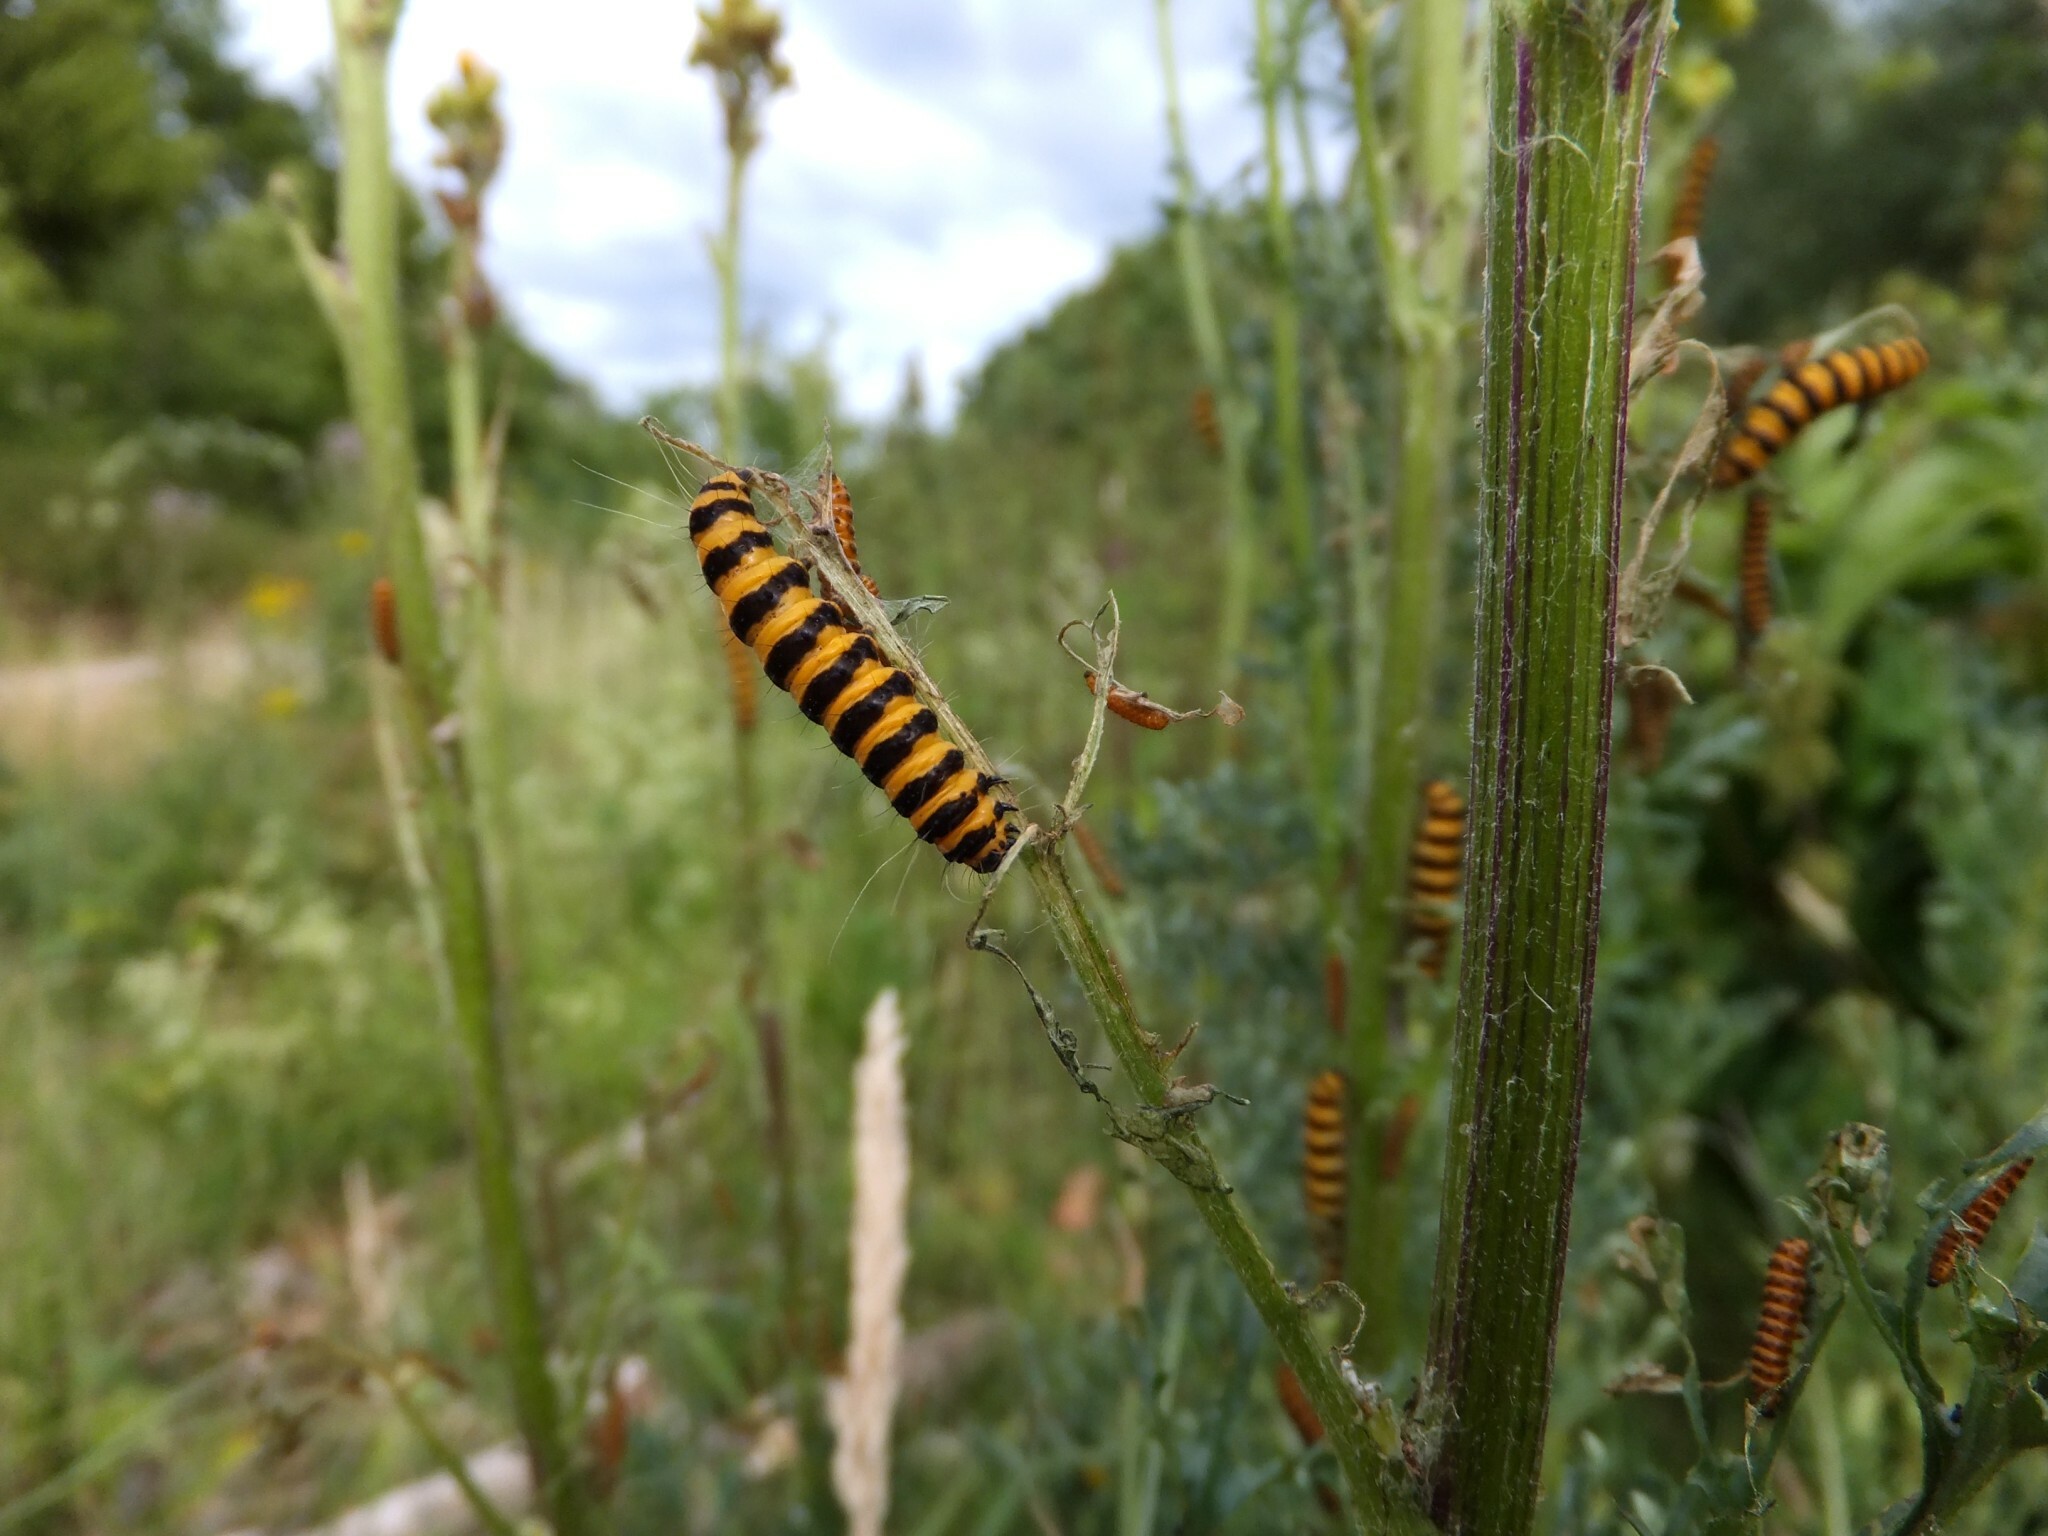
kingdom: Animalia
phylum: Arthropoda
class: Insecta
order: Lepidoptera
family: Erebidae
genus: Tyria
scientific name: Tyria jacobaeae
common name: Cinnabar
